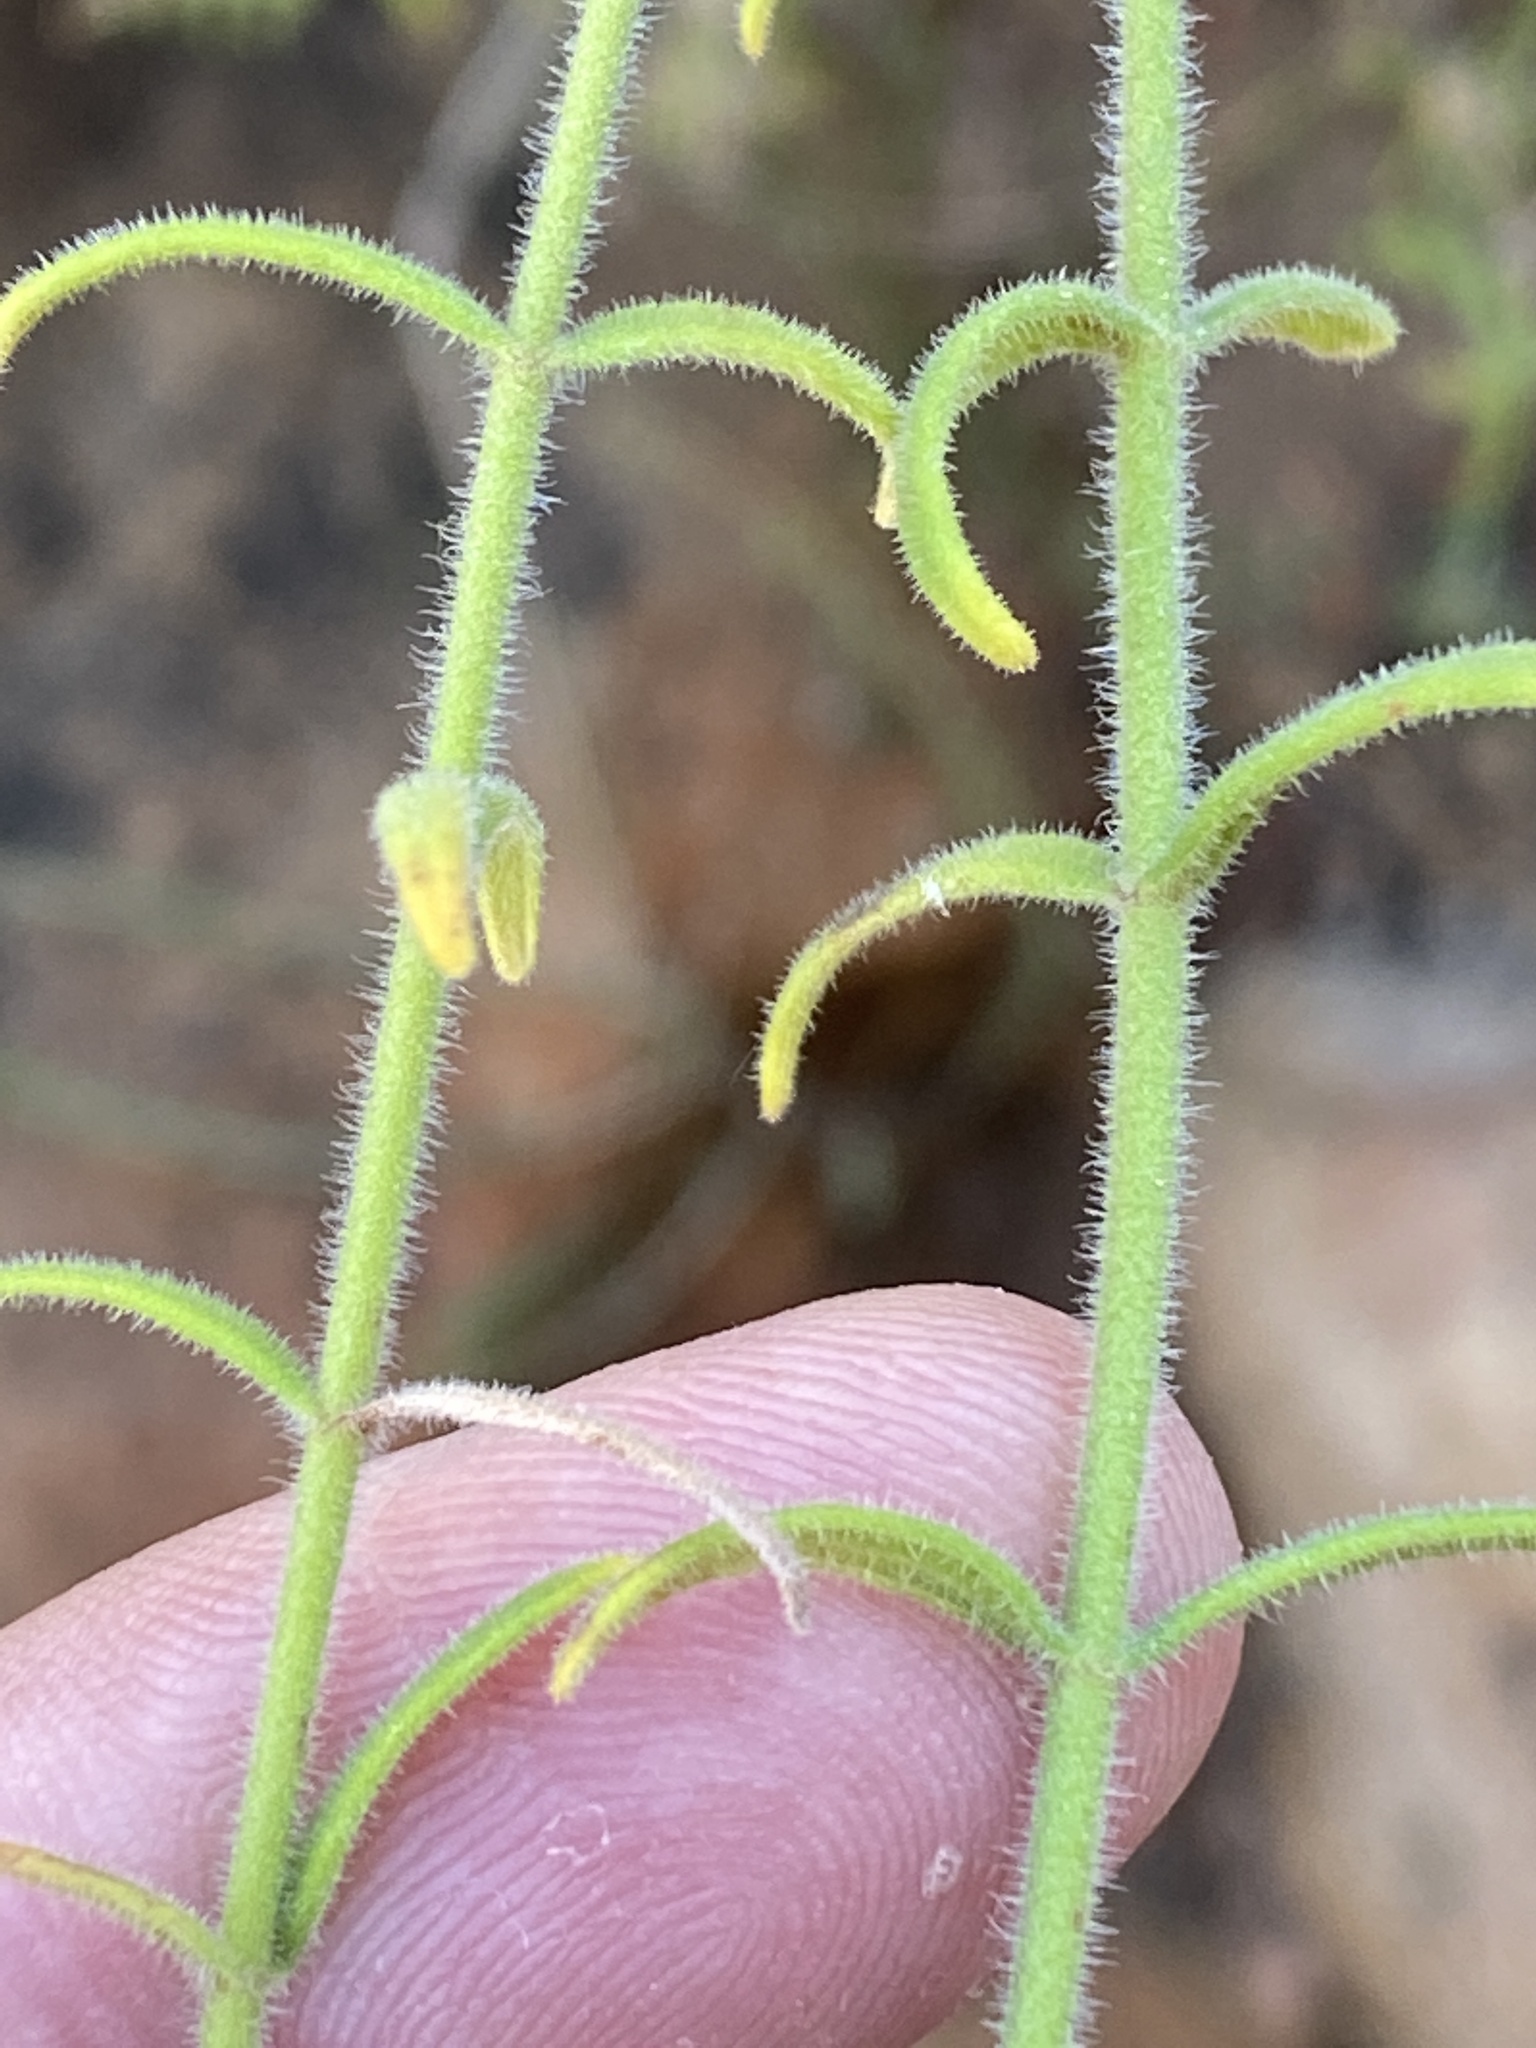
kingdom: Plantae
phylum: Tracheophyta
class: Magnoliopsida
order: Lamiales
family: Scrophulariaceae
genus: Chaenostoma
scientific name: Chaenostoma paniculatum
